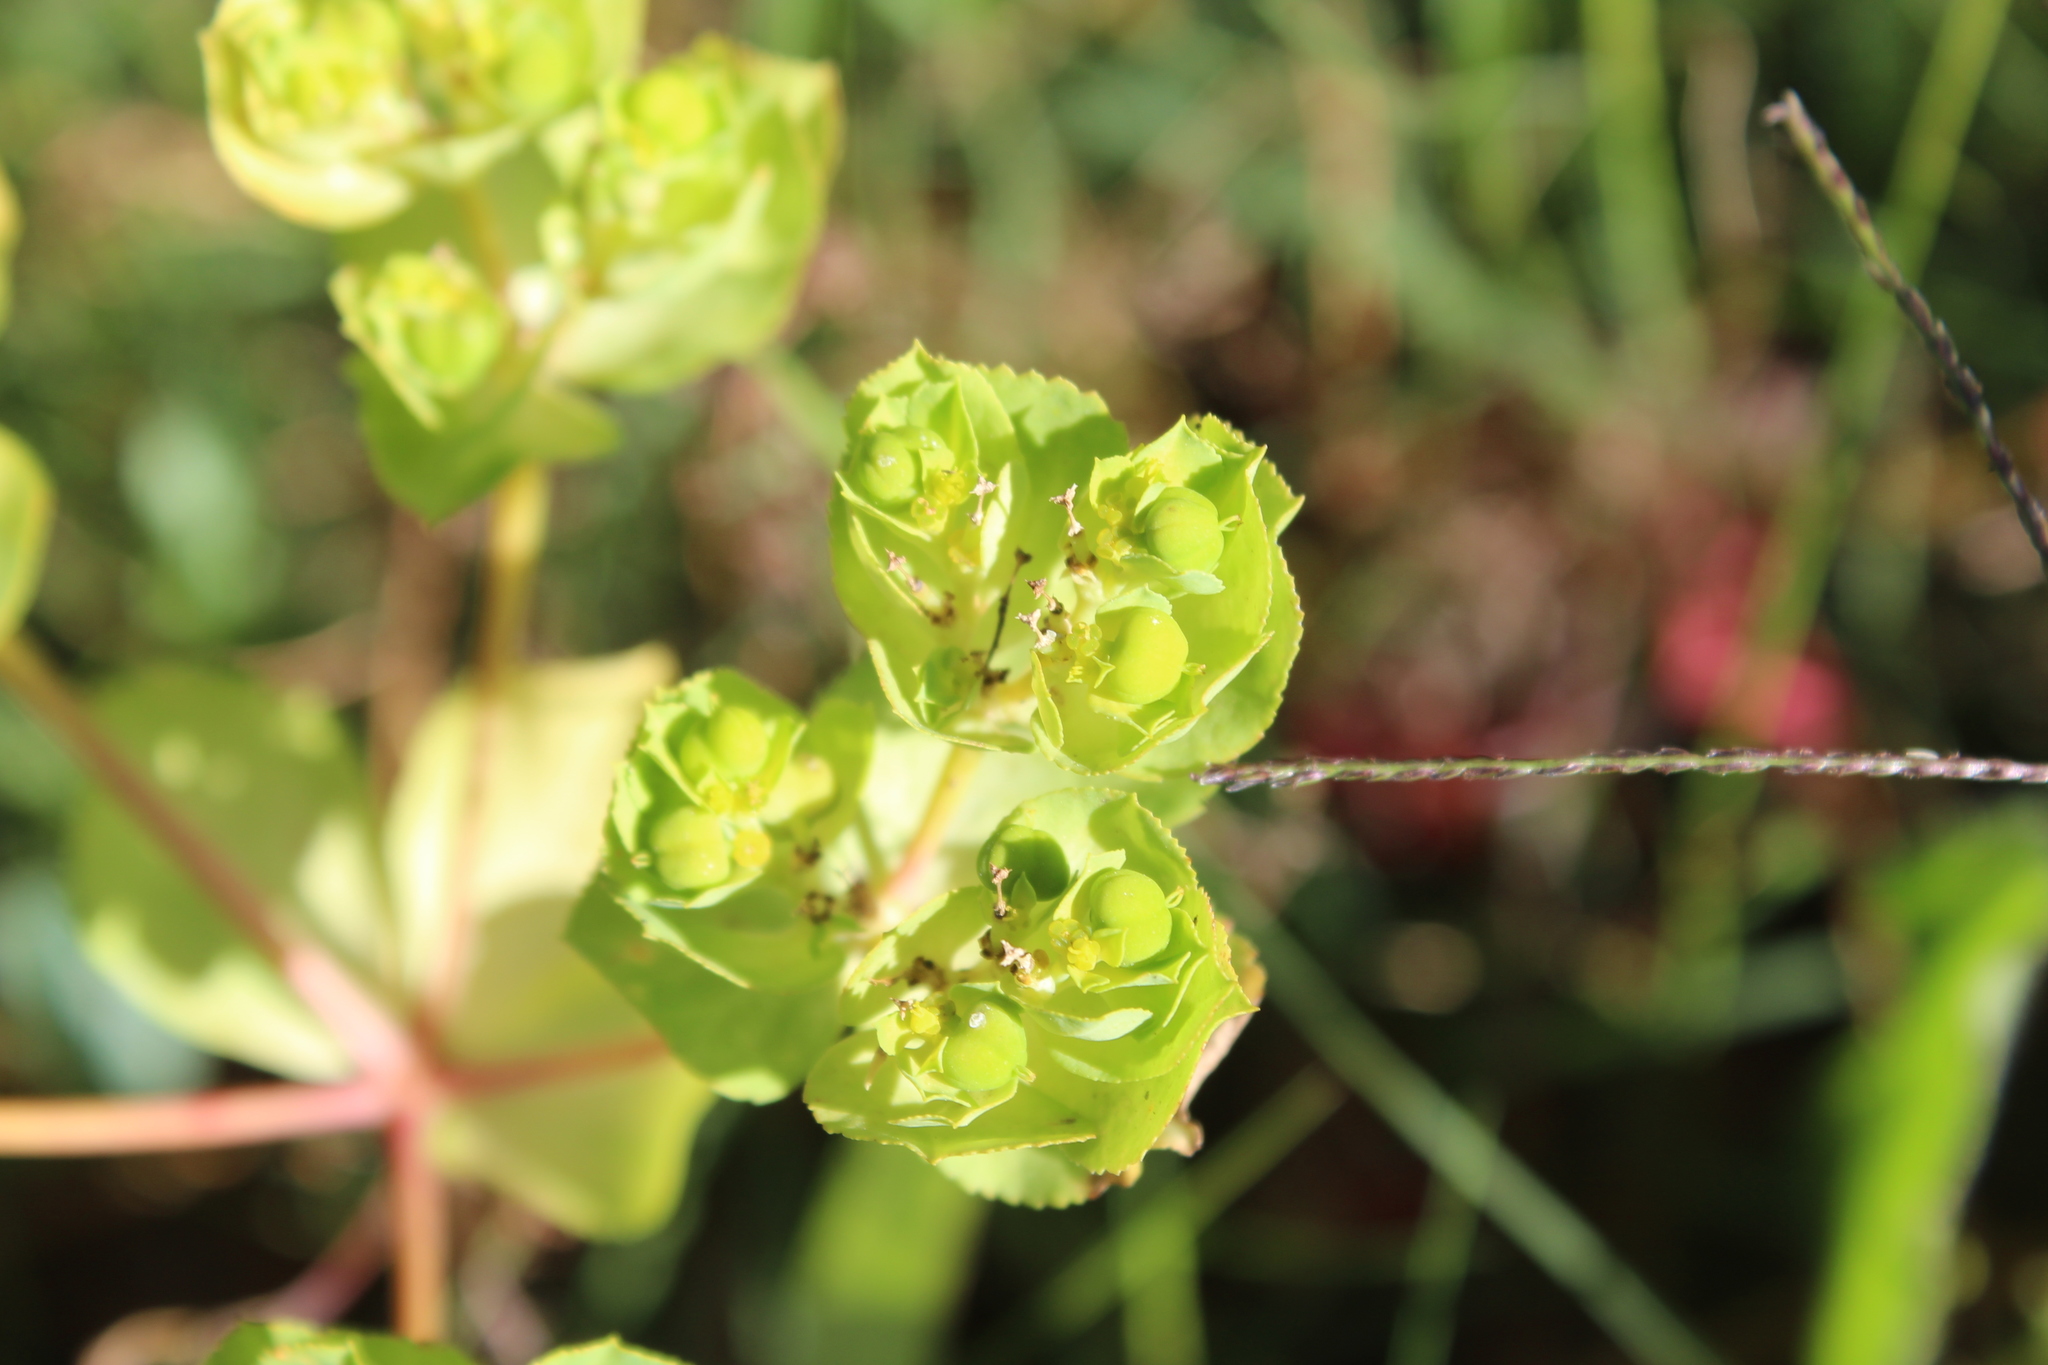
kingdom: Plantae
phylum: Tracheophyta
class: Magnoliopsida
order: Malpighiales
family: Euphorbiaceae
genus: Euphorbia
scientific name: Euphorbia helioscopia
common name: Sun spurge
